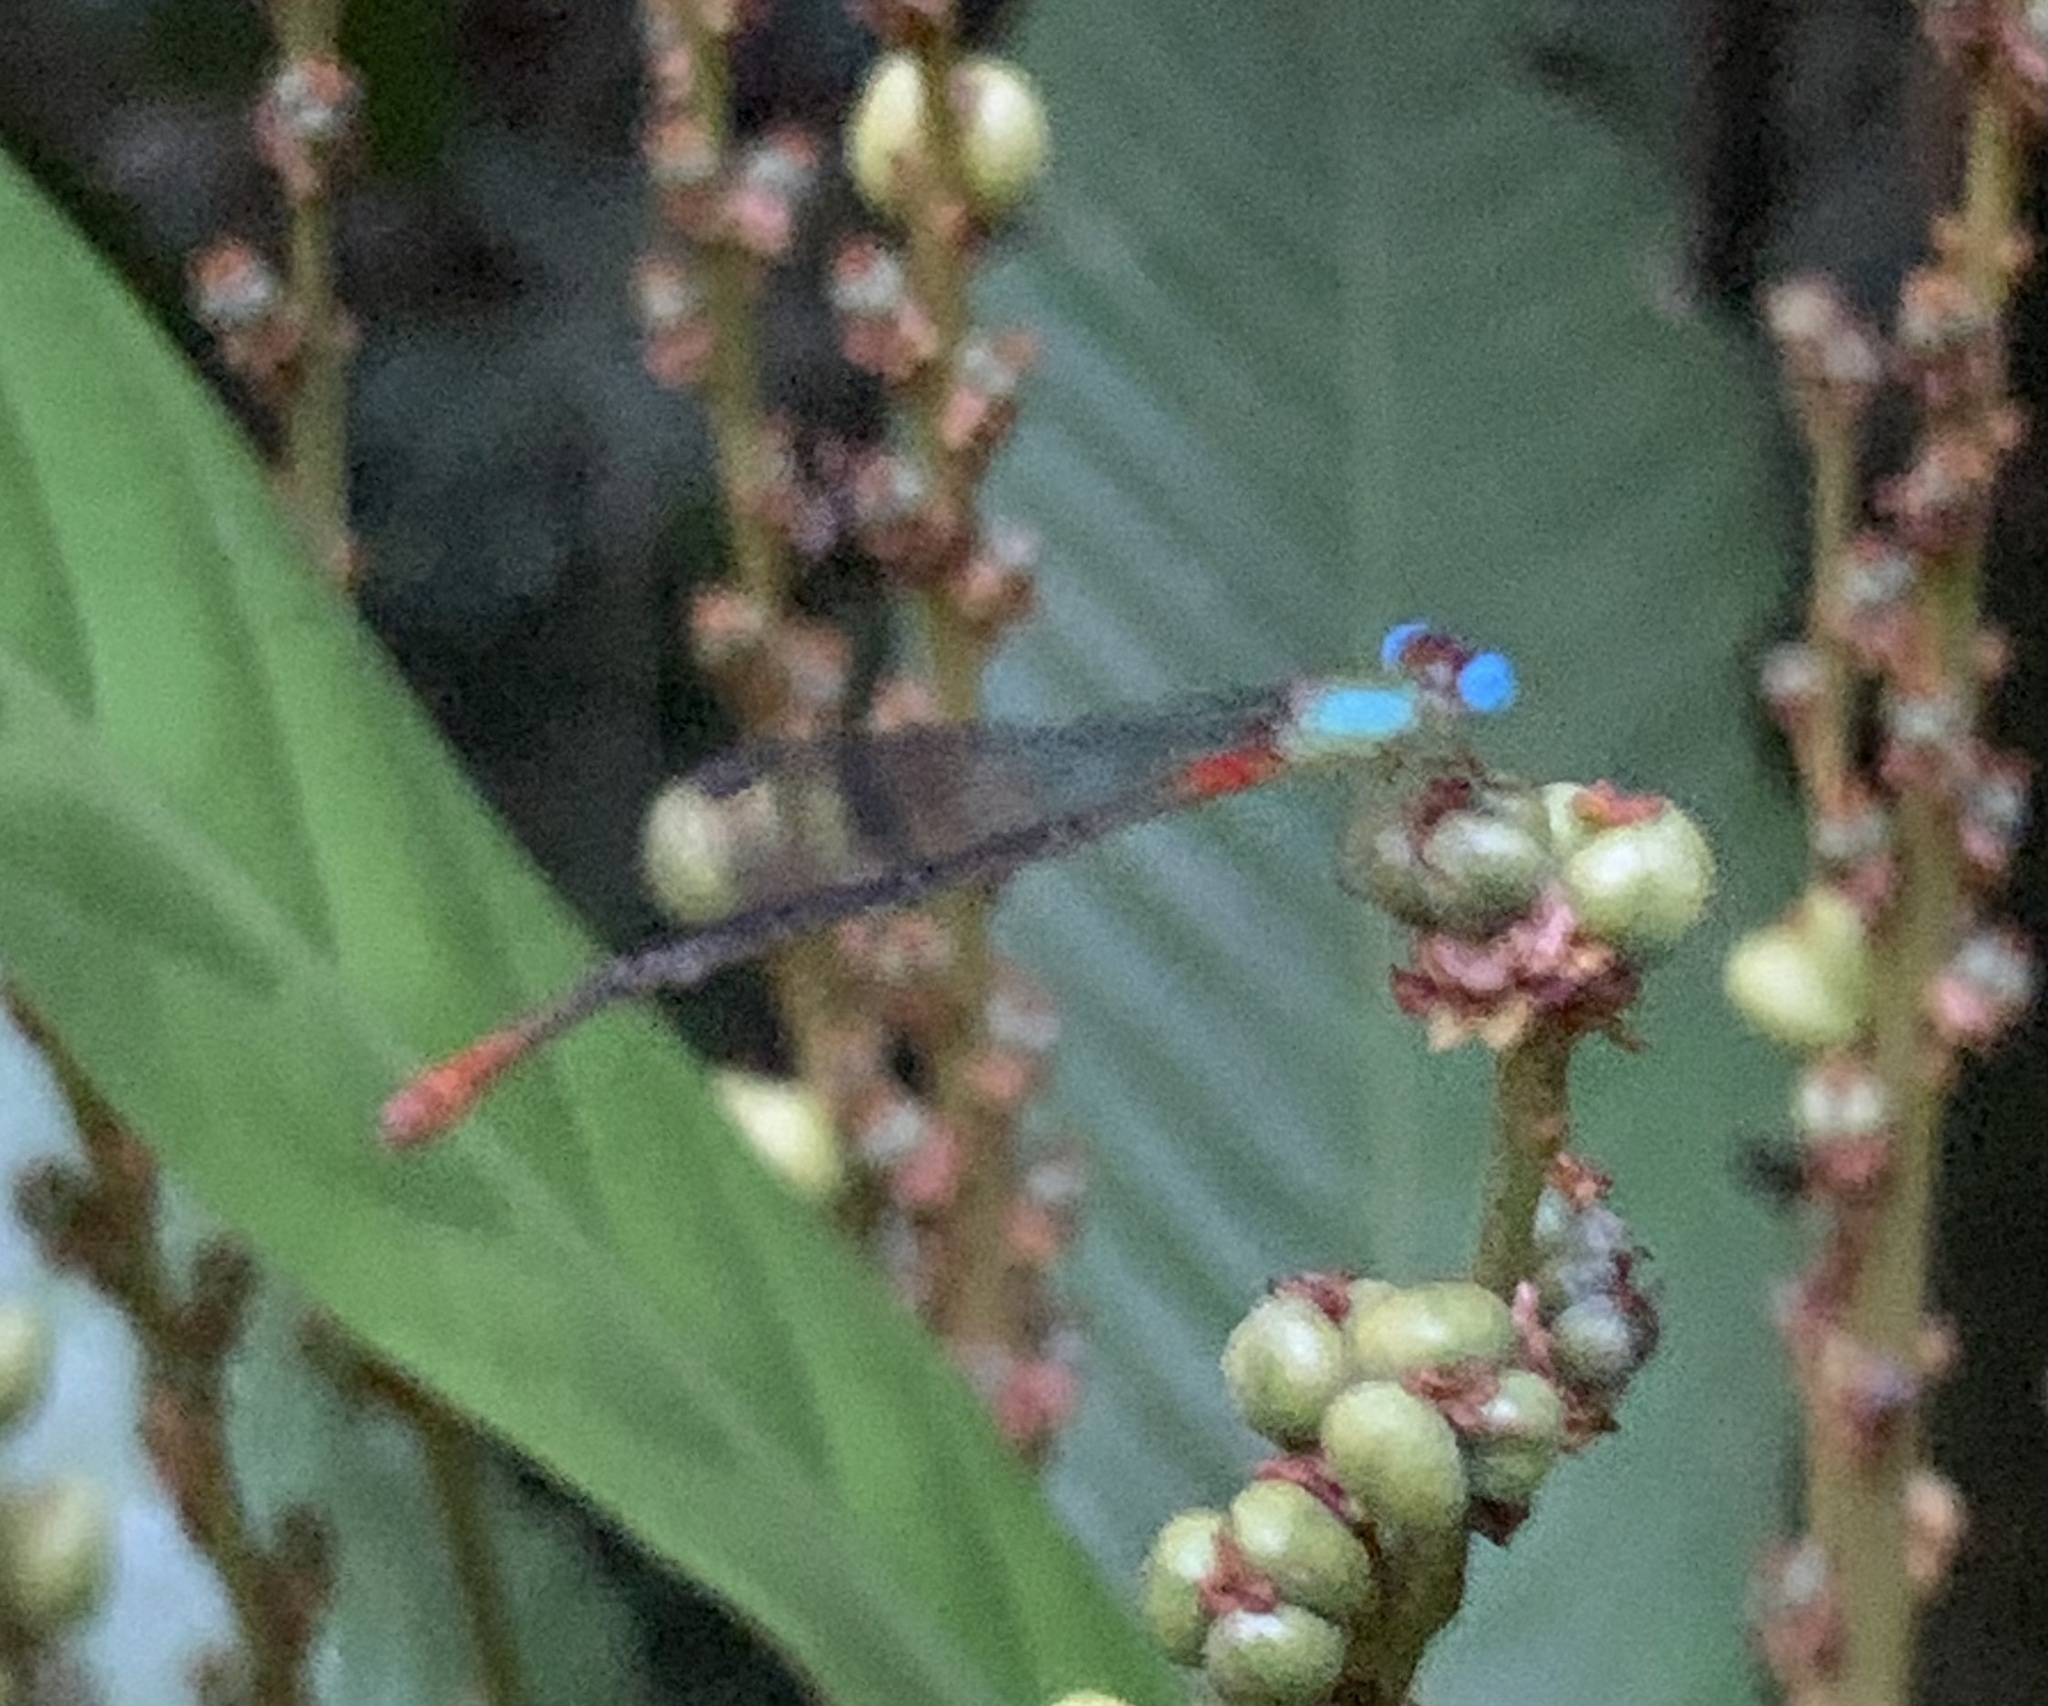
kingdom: Animalia
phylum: Arthropoda
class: Insecta
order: Odonata
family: Coenagrionidae
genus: Ceriagrion
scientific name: Ceriagrion cerinorubellum
